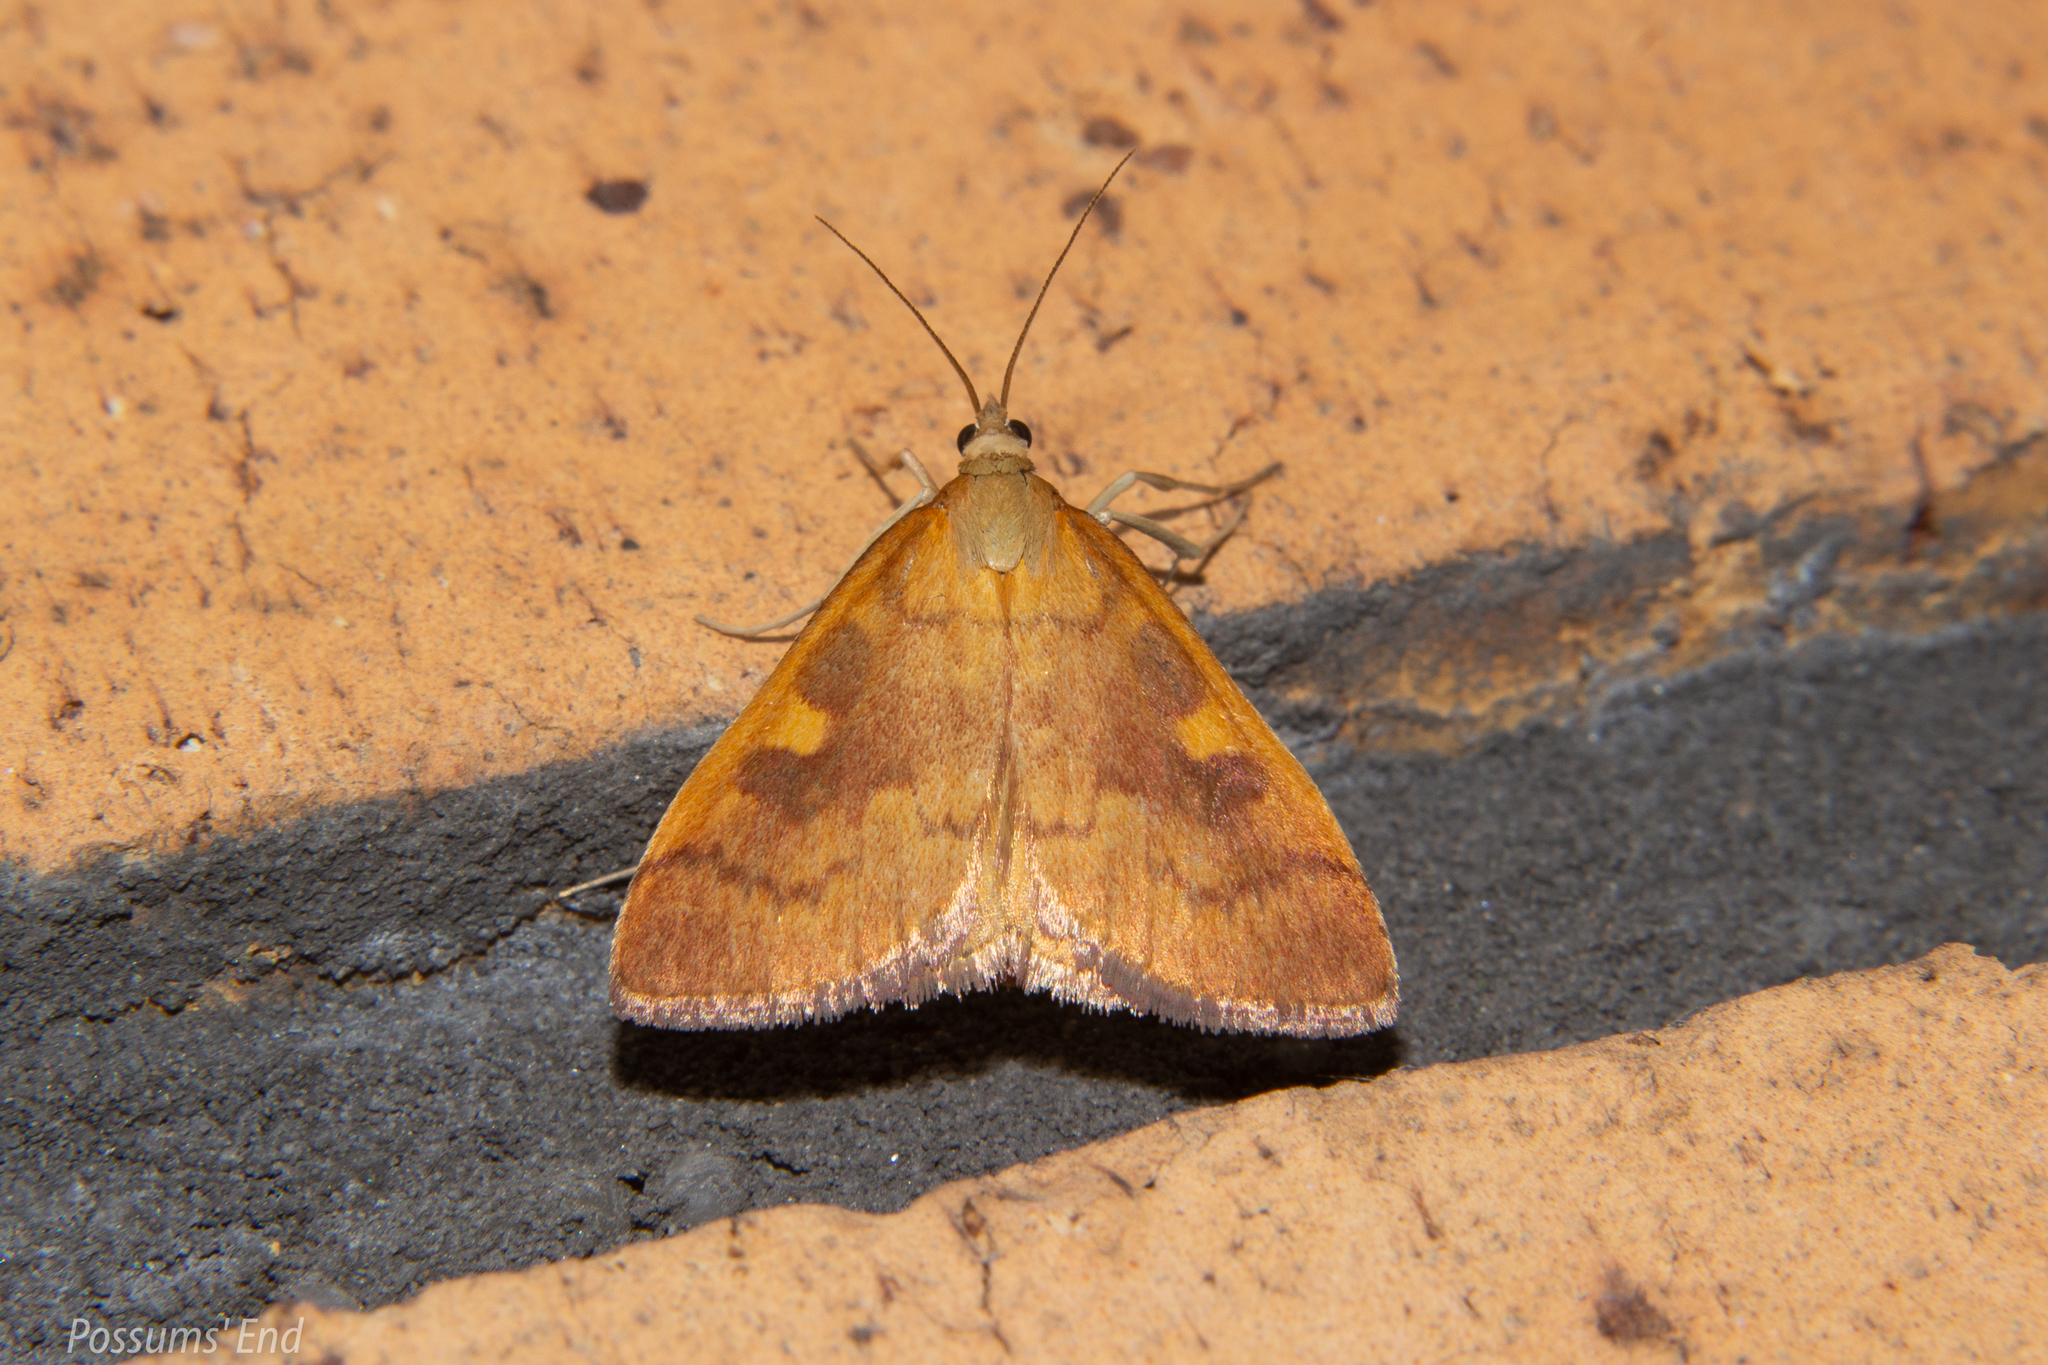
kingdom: Animalia
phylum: Arthropoda
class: Insecta
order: Lepidoptera
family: Crambidae
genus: Udea
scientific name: Udea Mnesictena flavidalis
